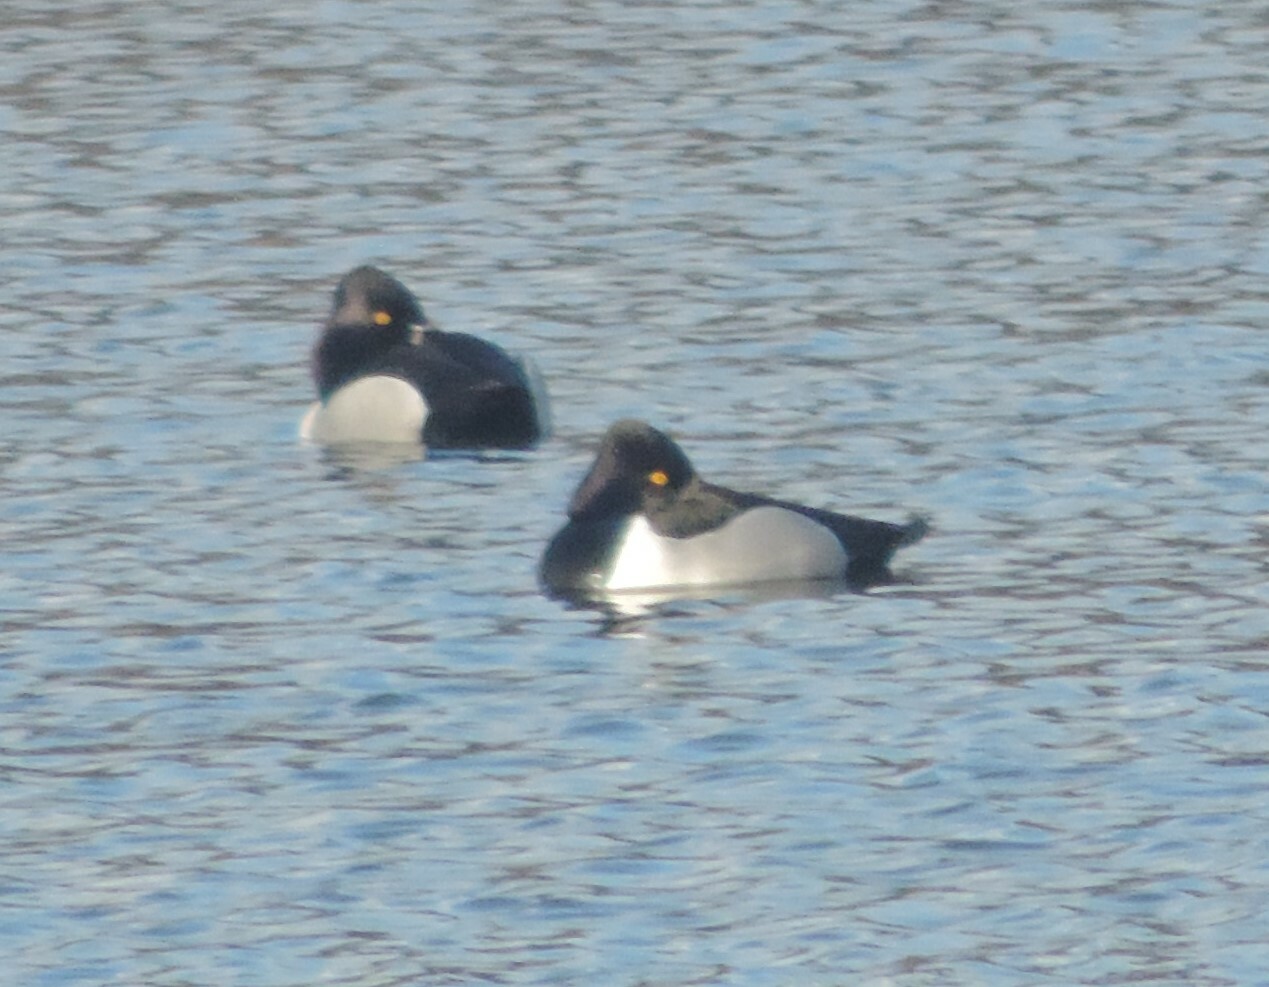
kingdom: Animalia
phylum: Chordata
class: Aves
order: Anseriformes
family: Anatidae
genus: Aythya
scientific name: Aythya collaris
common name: Ring-necked duck
